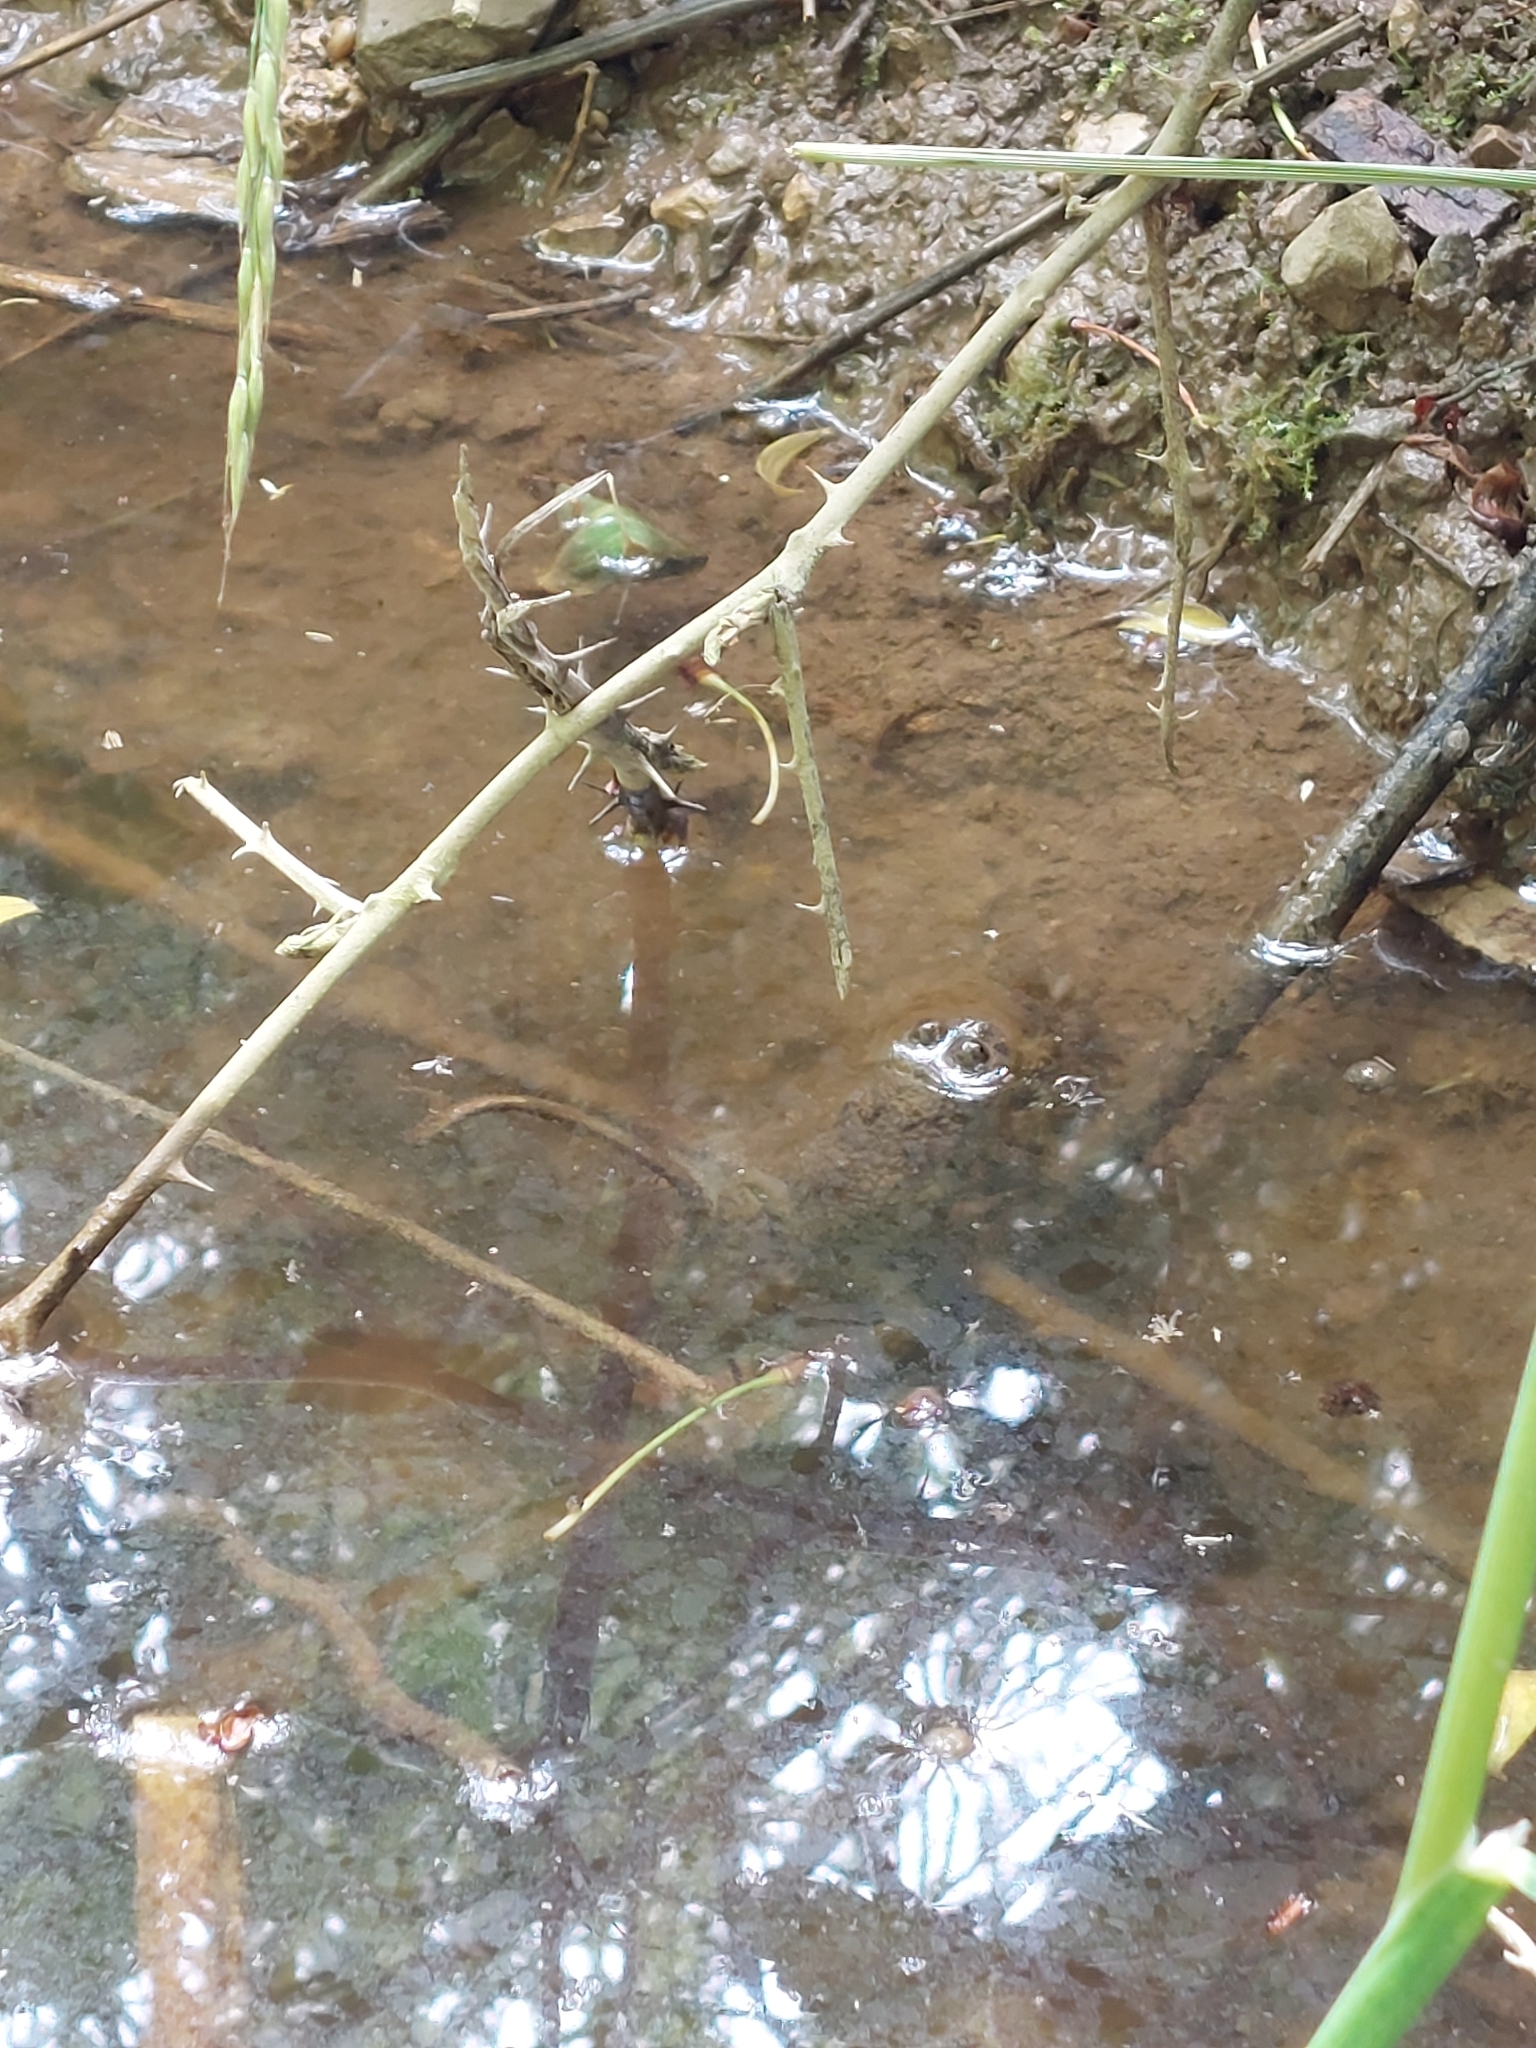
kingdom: Animalia
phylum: Chordata
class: Amphibia
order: Anura
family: Bombinatoridae
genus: Bombina
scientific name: Bombina variegata
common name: Yellow-bellied toad
